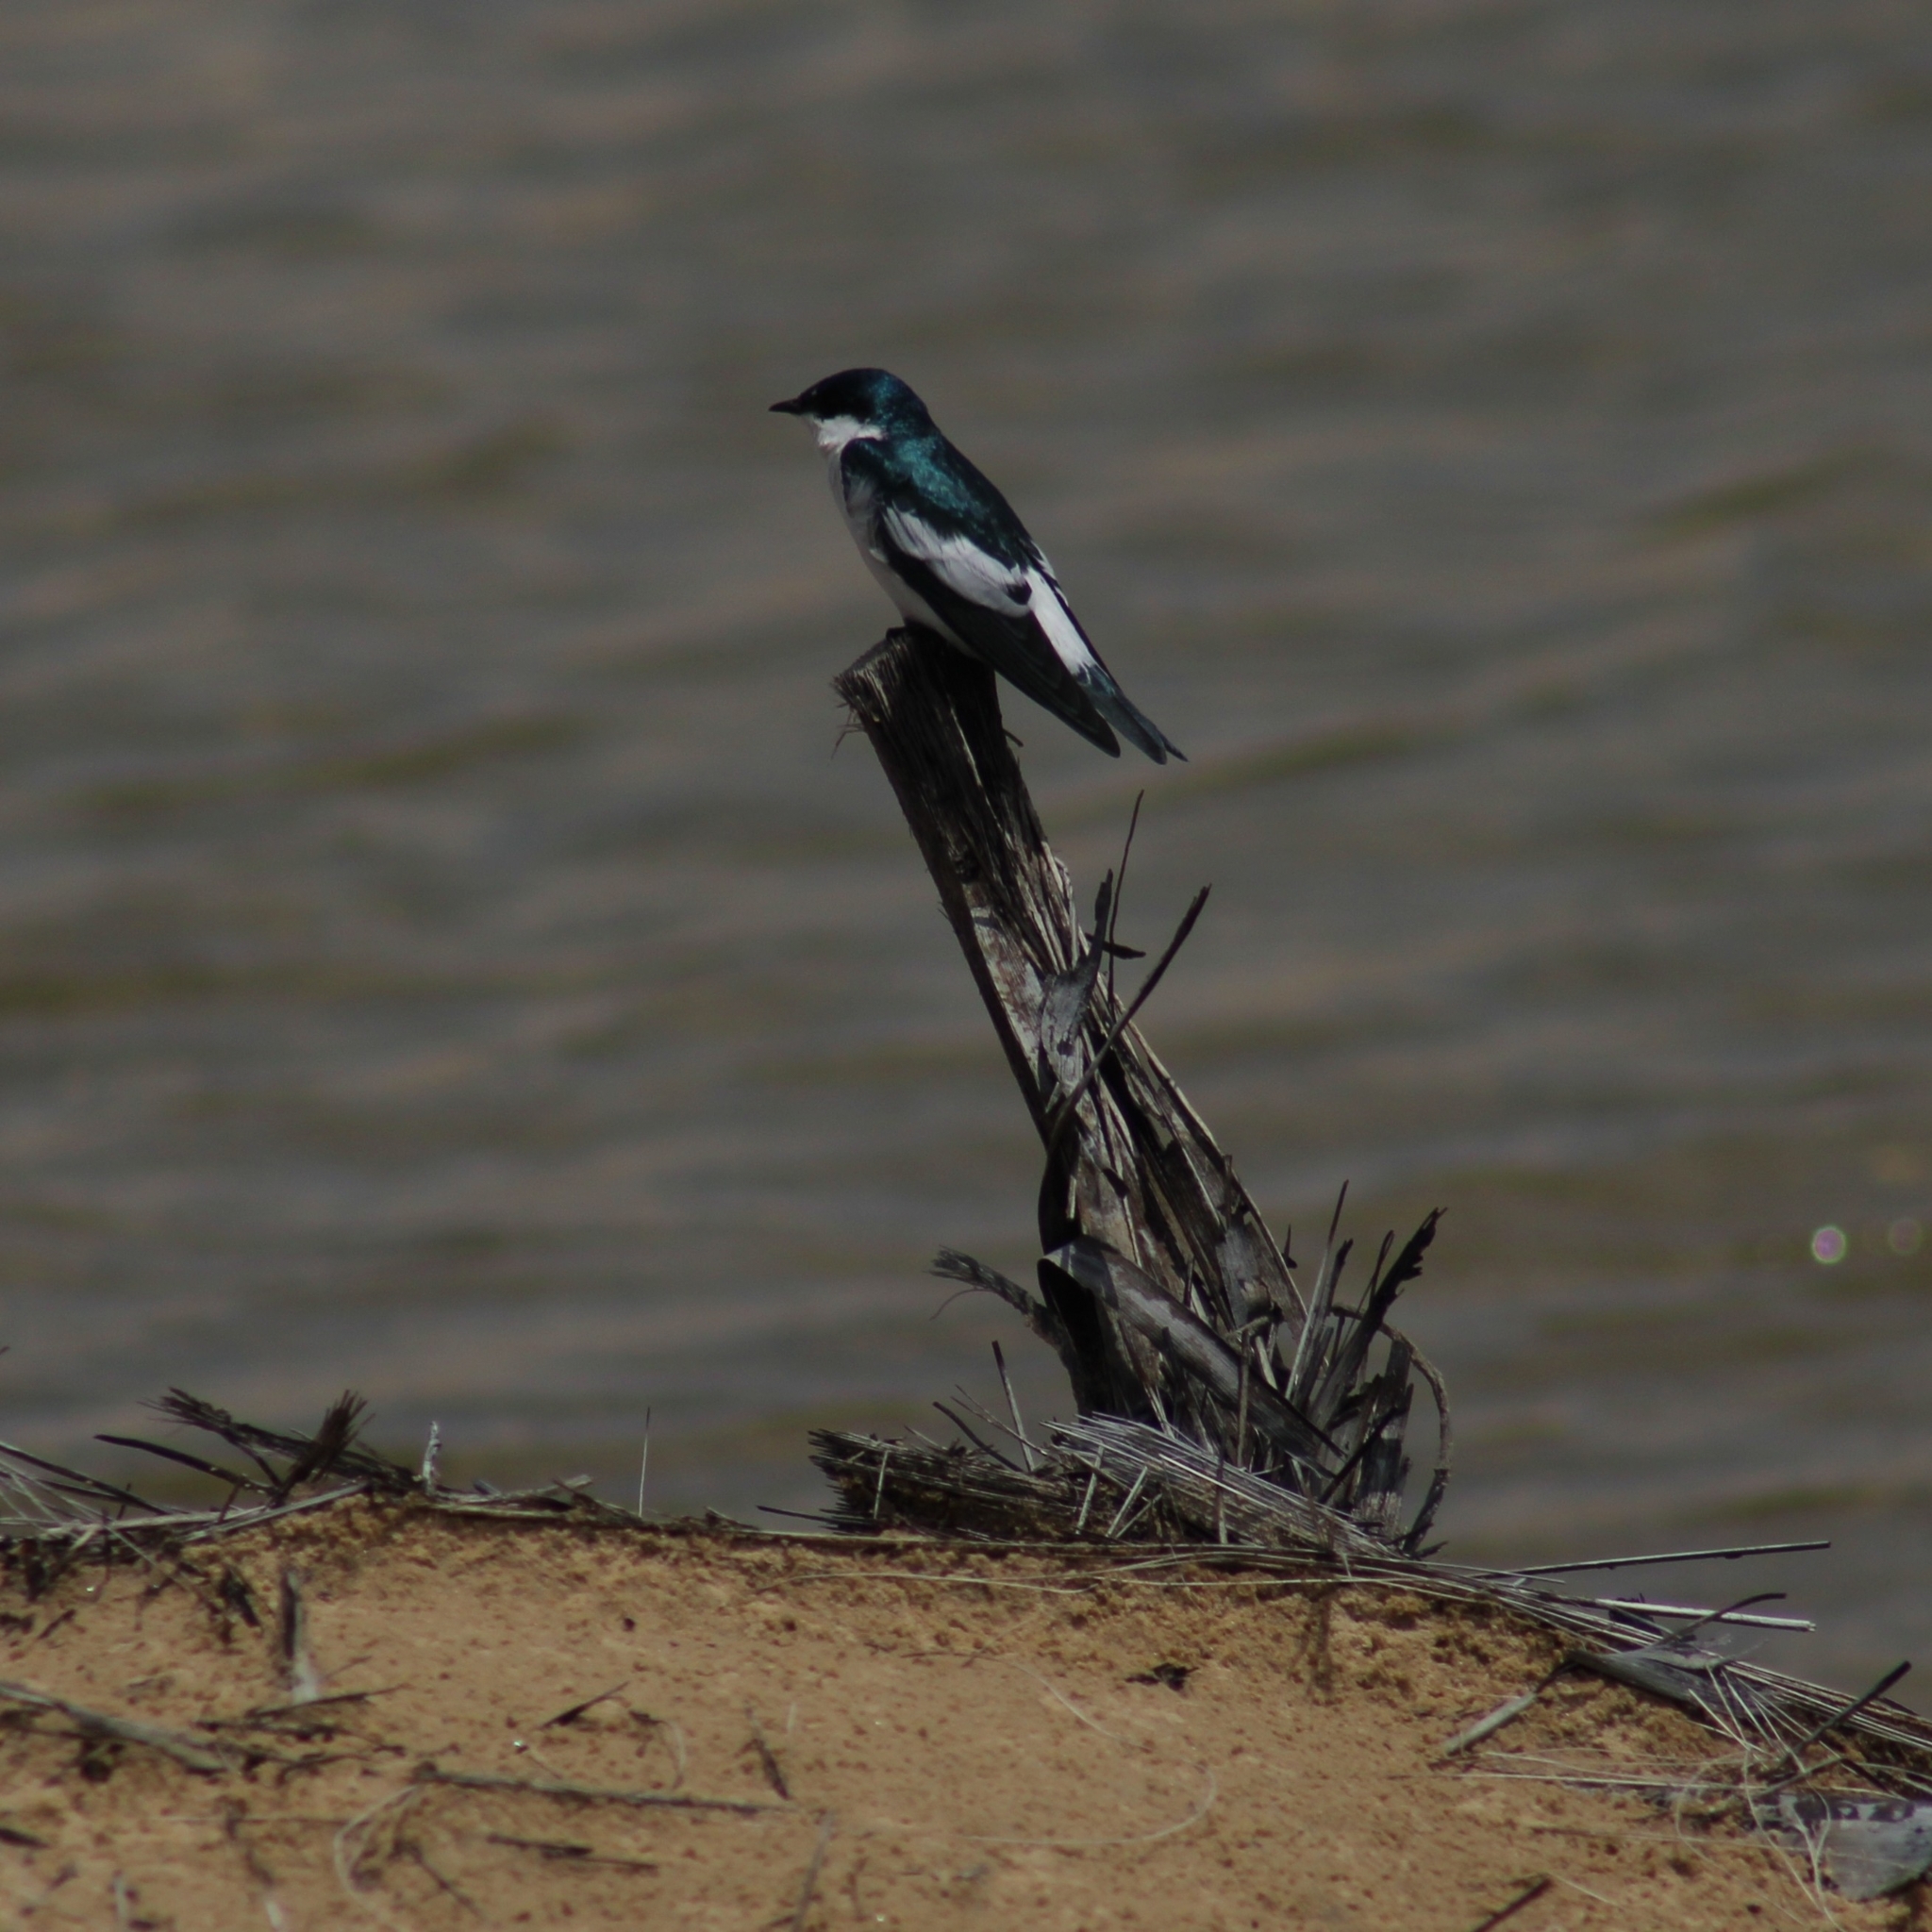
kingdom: Animalia
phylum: Chordata
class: Aves
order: Passeriformes
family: Hirundinidae
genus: Tachycineta
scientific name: Tachycineta albiventer
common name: White-winged swallow
